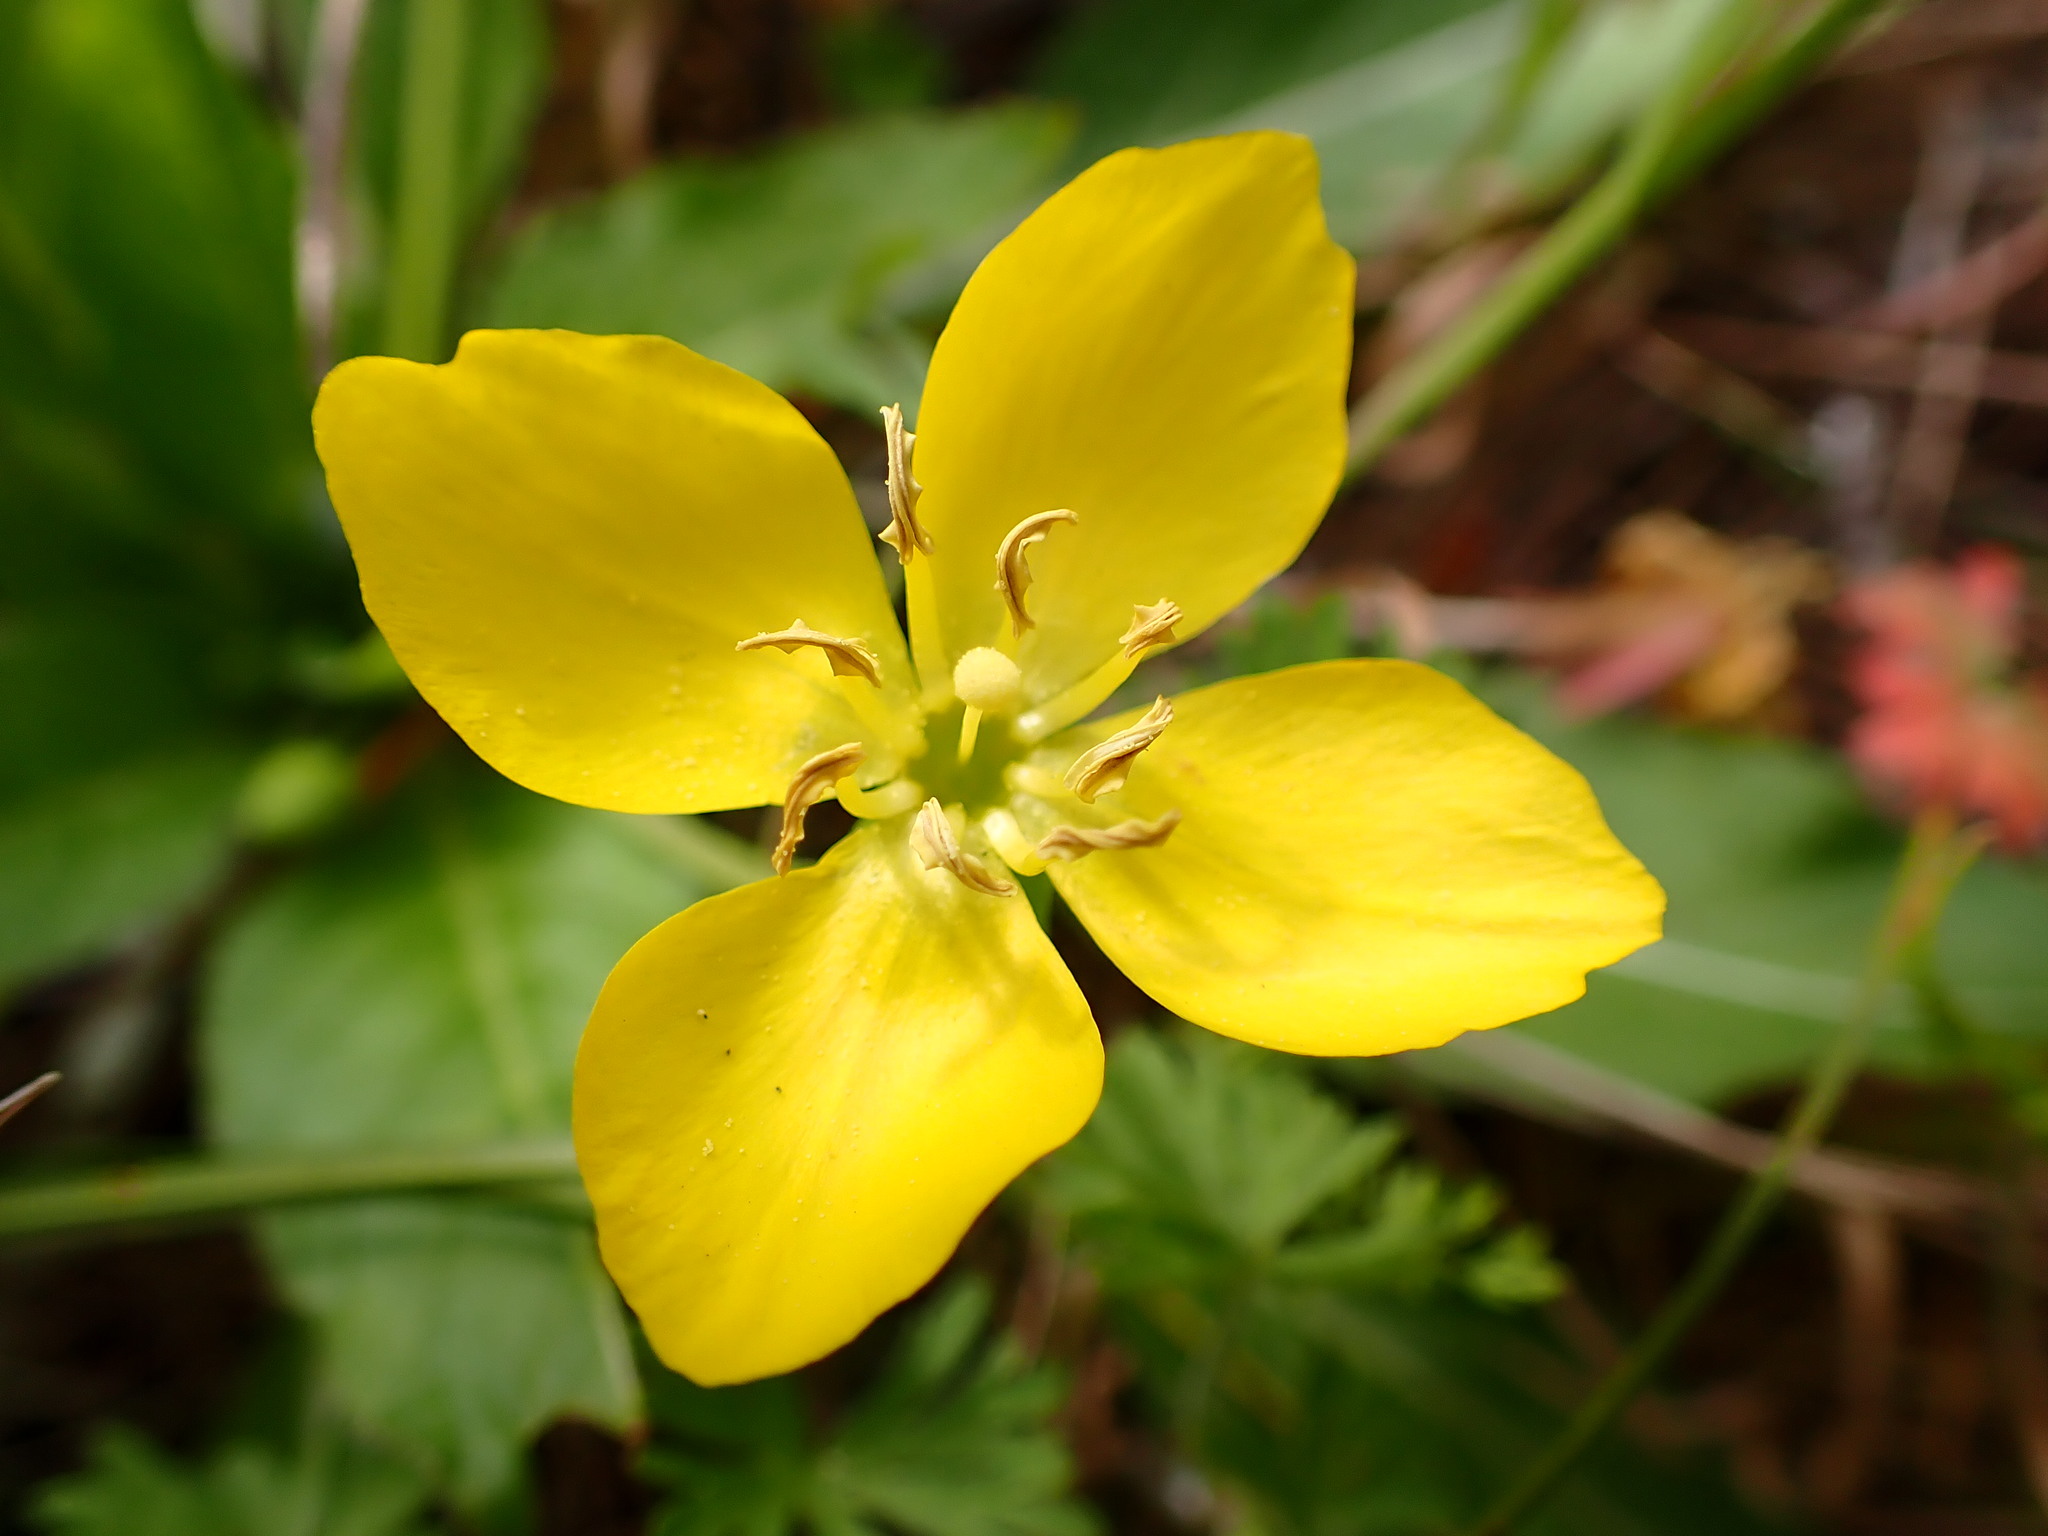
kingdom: Plantae
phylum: Tracheophyta
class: Magnoliopsida
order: Myrtales
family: Onagraceae
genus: Taraxia
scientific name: Taraxia ovata
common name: Goldeneggs
